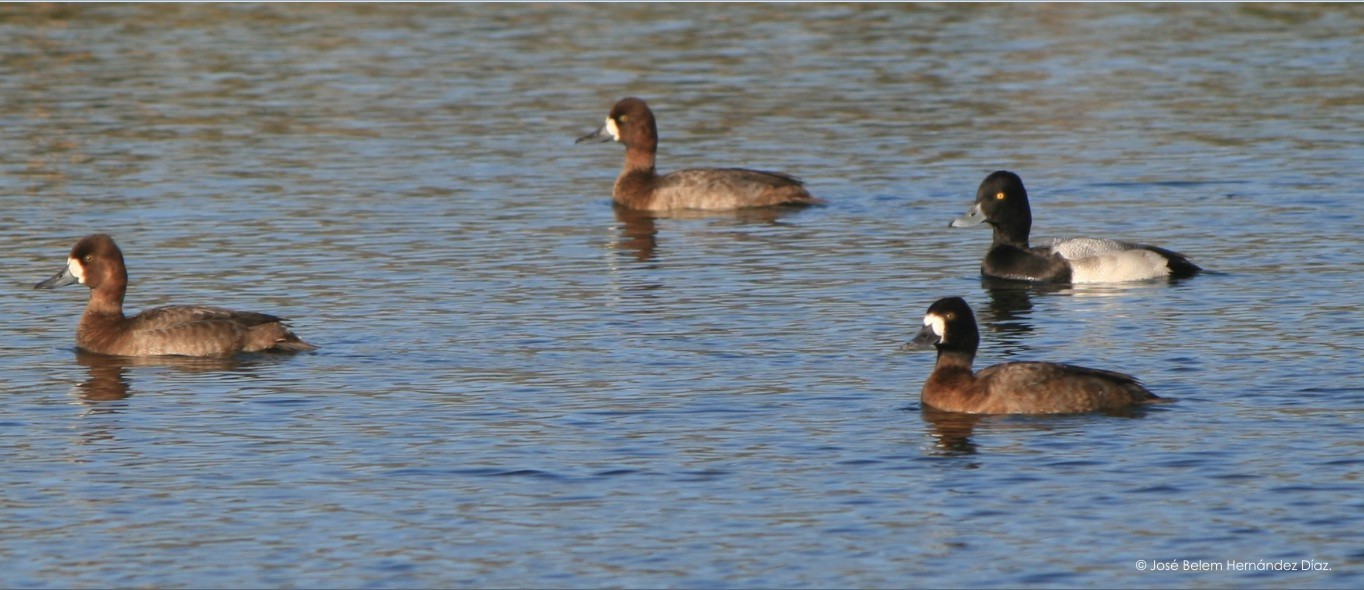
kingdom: Animalia
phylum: Chordata
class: Aves
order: Anseriformes
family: Anatidae
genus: Aythya
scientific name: Aythya affinis
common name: Lesser scaup
